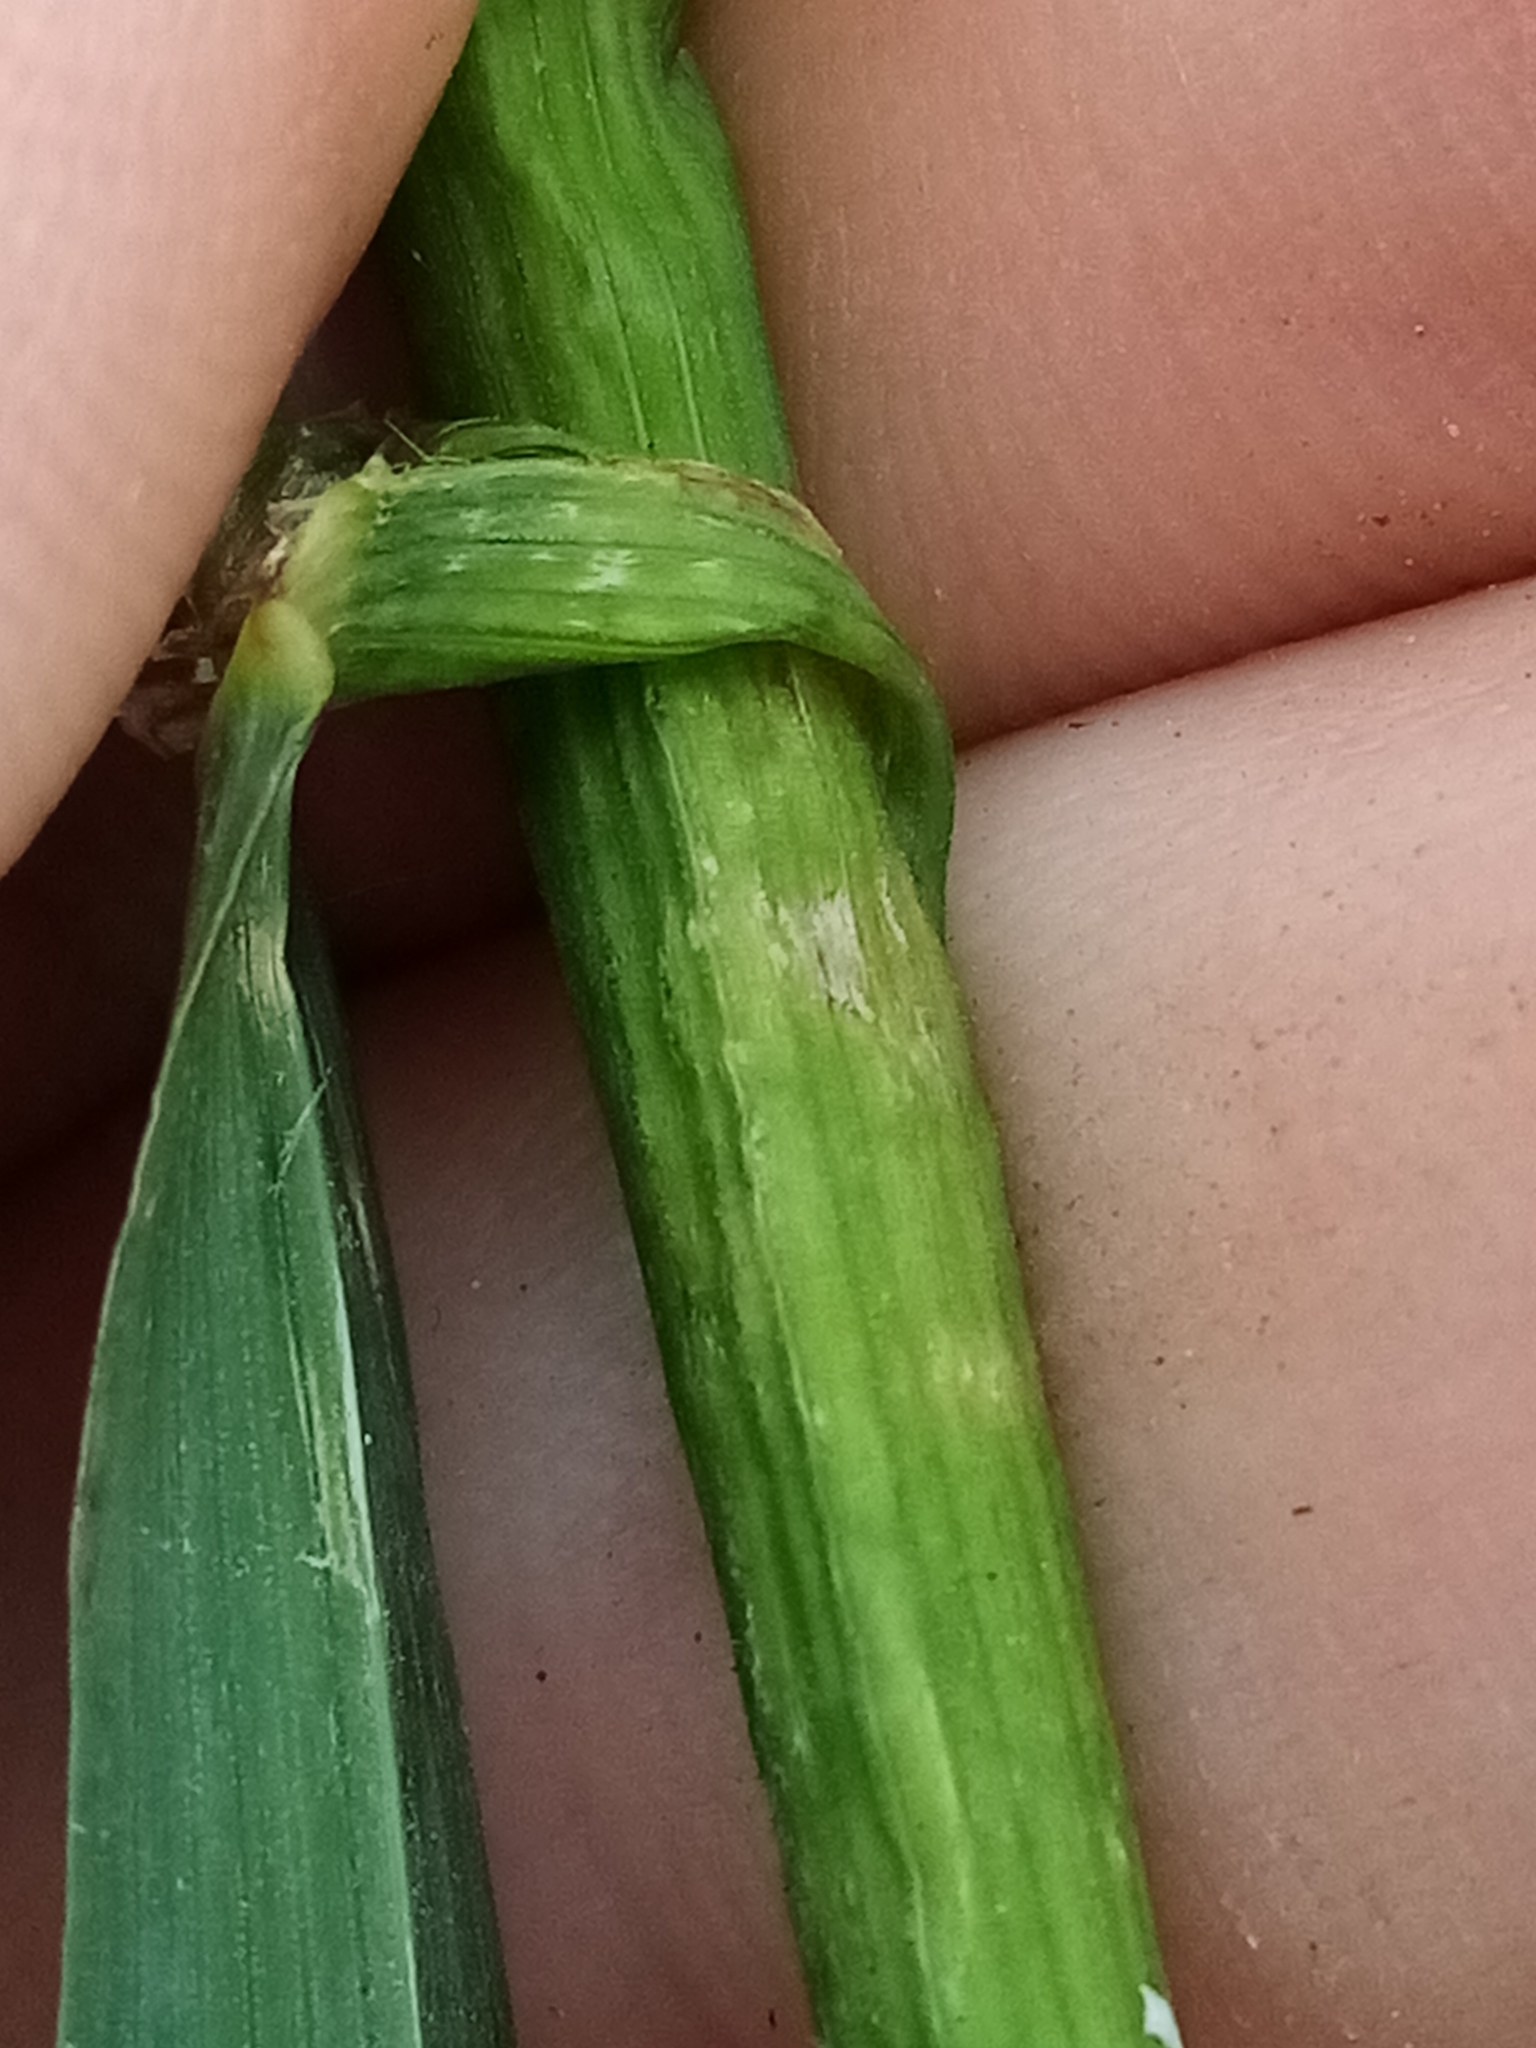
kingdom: Plantae
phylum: Tracheophyta
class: Liliopsida
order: Poales
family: Poaceae
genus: Bromus
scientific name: Bromus sitchensis
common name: Sitka brome
